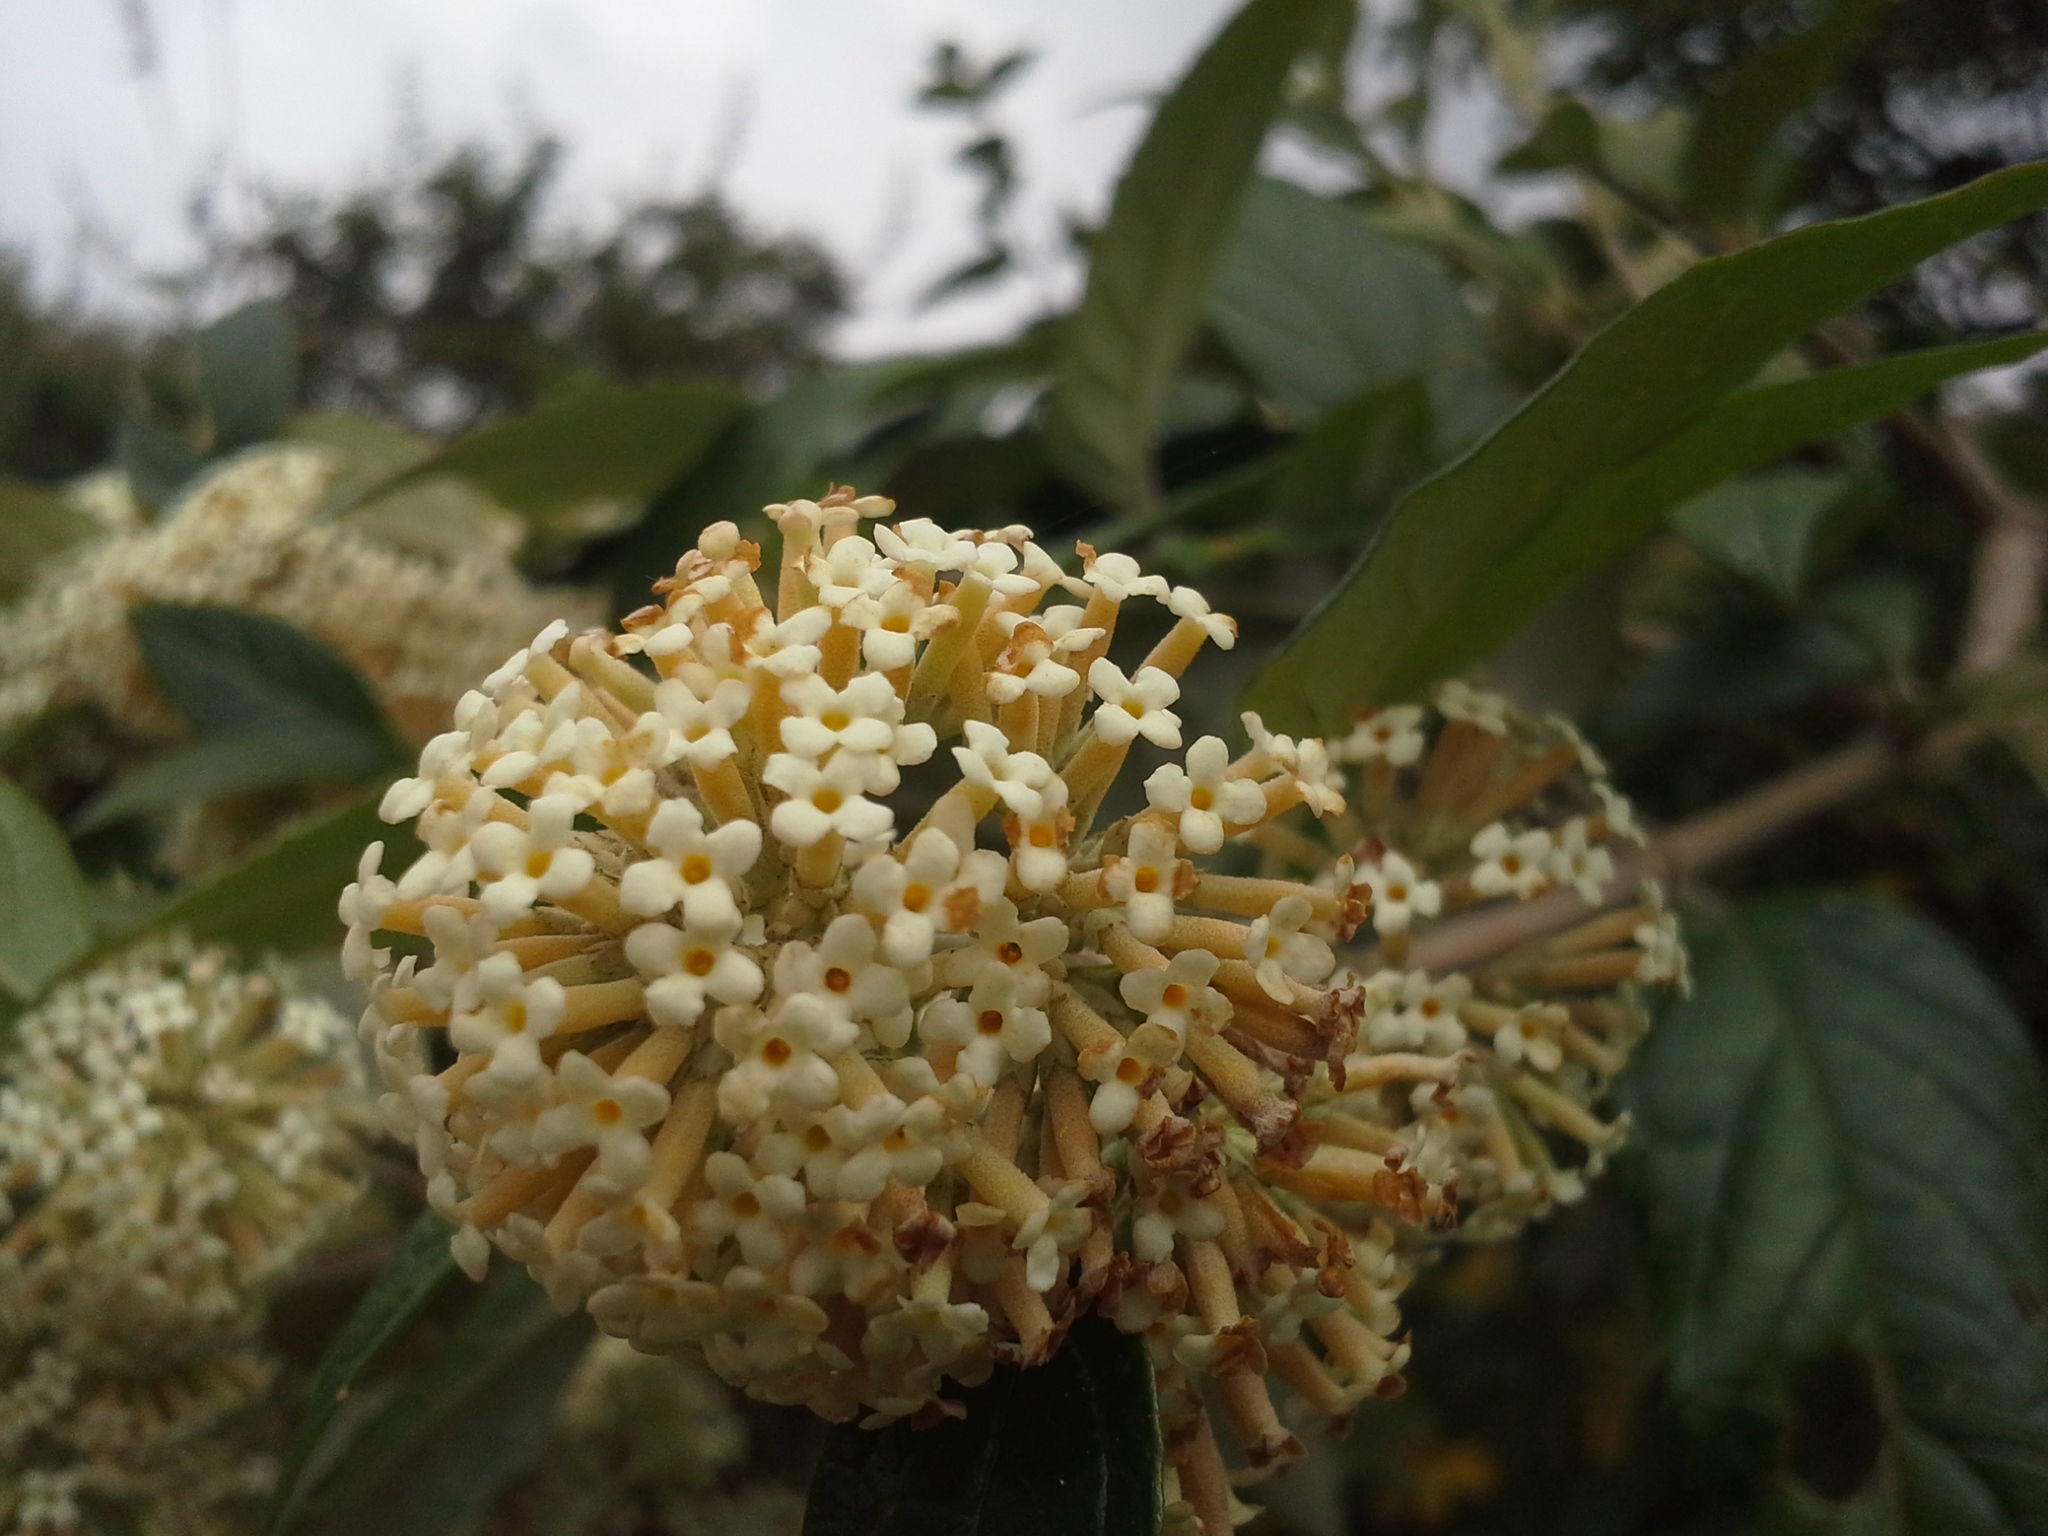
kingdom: Plantae
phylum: Tracheophyta
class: Magnoliopsida
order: Lamiales
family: Scrophulariaceae
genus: Buddleja
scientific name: Buddleja auriculata
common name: Weeping sagewood
